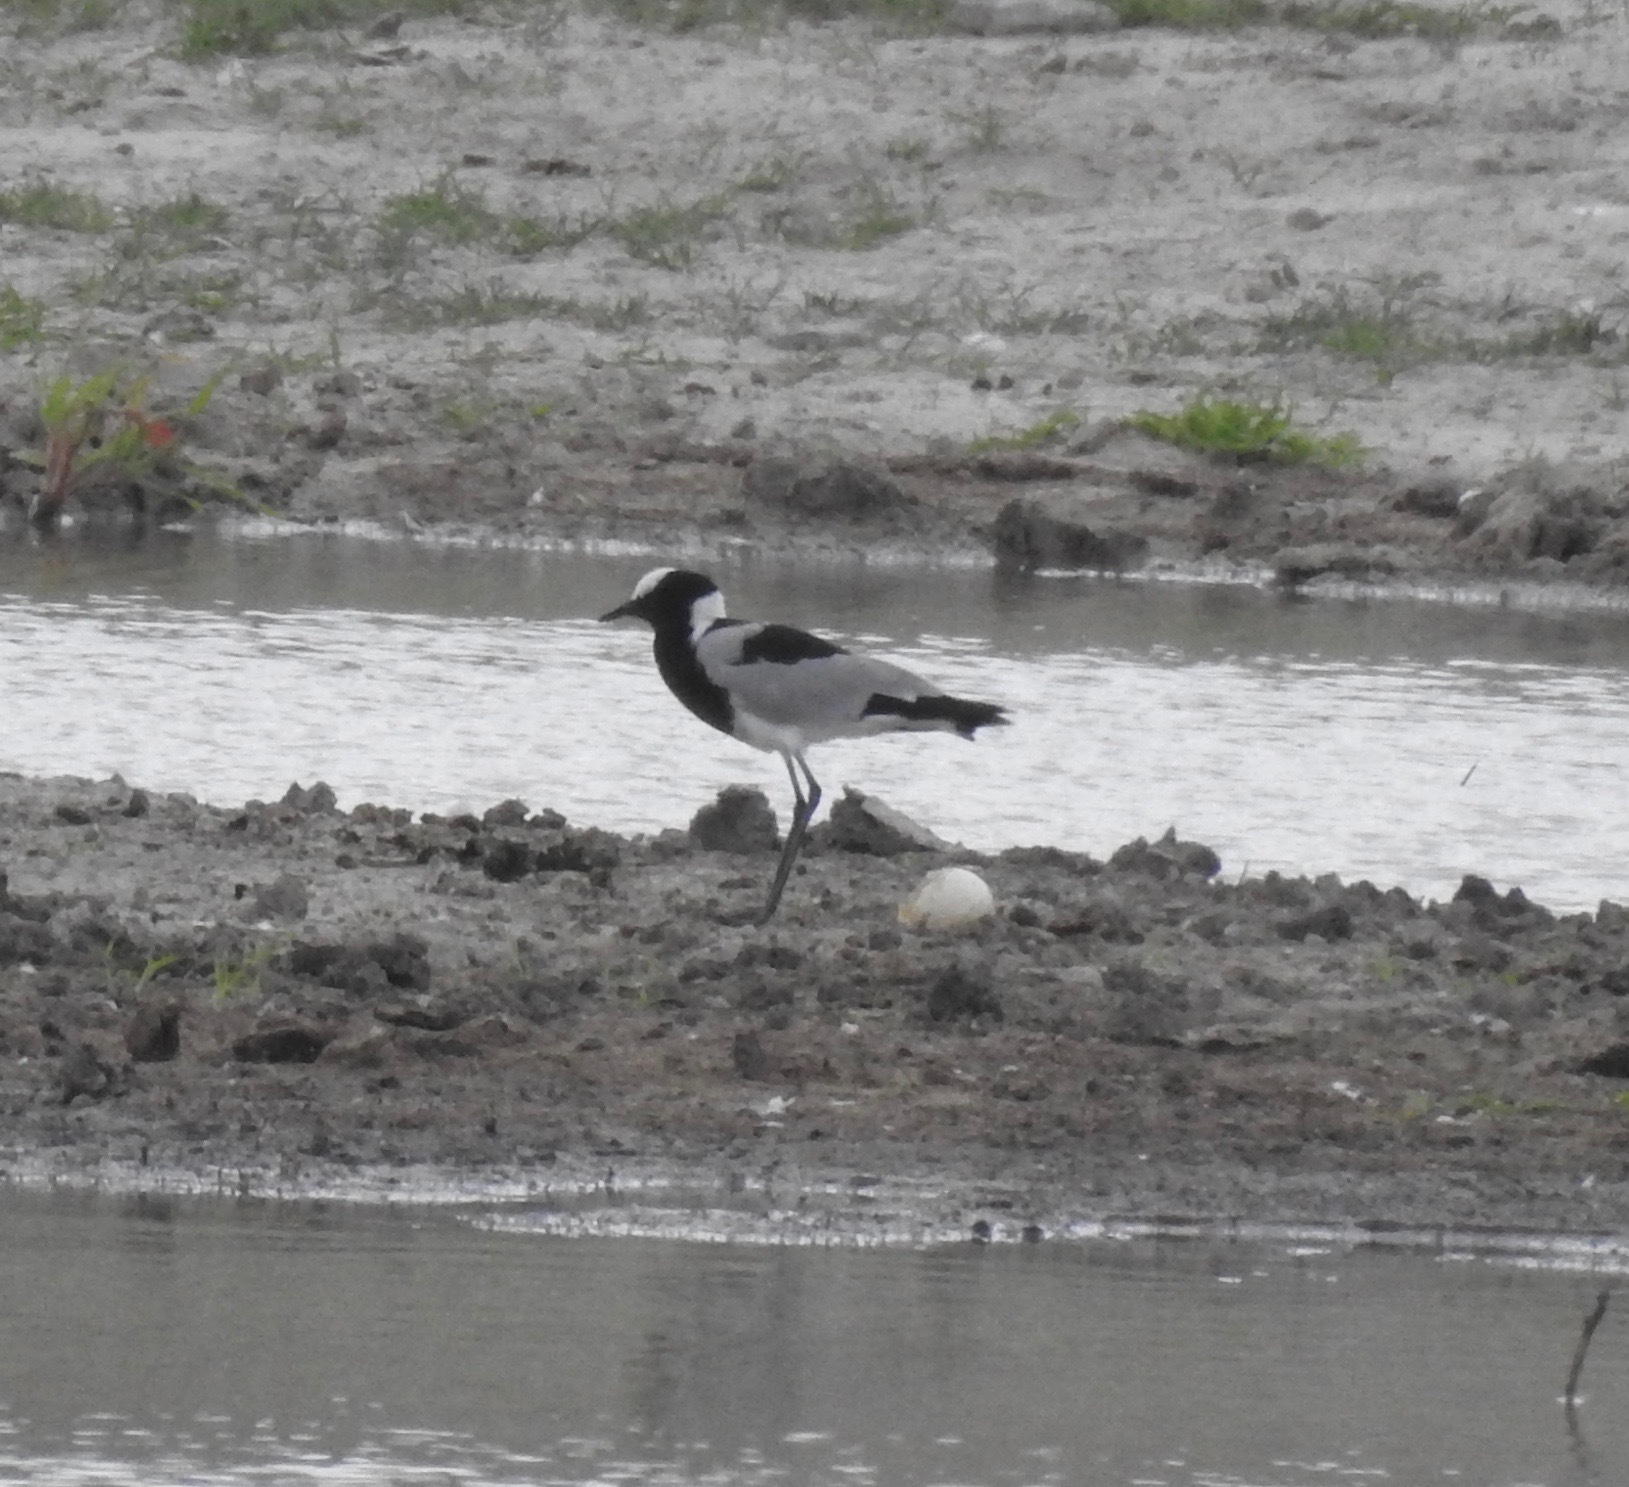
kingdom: Animalia
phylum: Chordata
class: Aves
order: Charadriiformes
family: Charadriidae
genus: Vanellus
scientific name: Vanellus armatus
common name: Blacksmith lapwing
